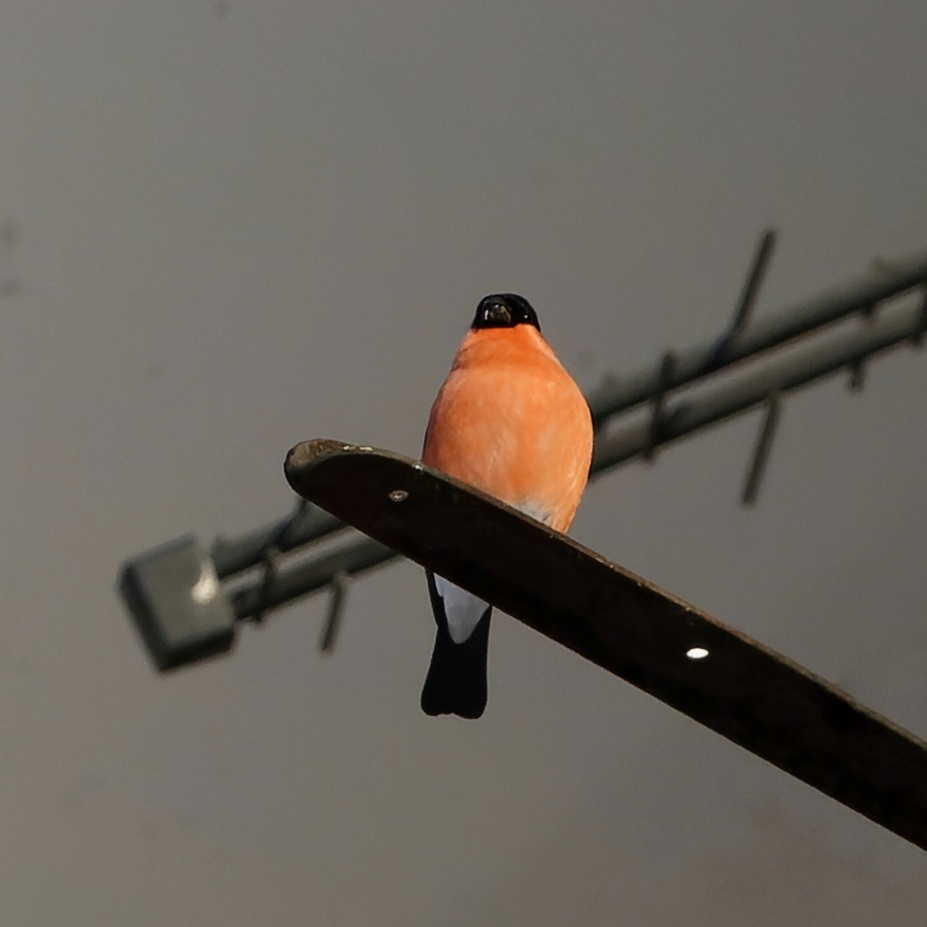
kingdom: Animalia
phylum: Chordata
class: Aves
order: Passeriformes
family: Fringillidae
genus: Pyrrhula
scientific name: Pyrrhula pyrrhula
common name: Eurasian bullfinch
